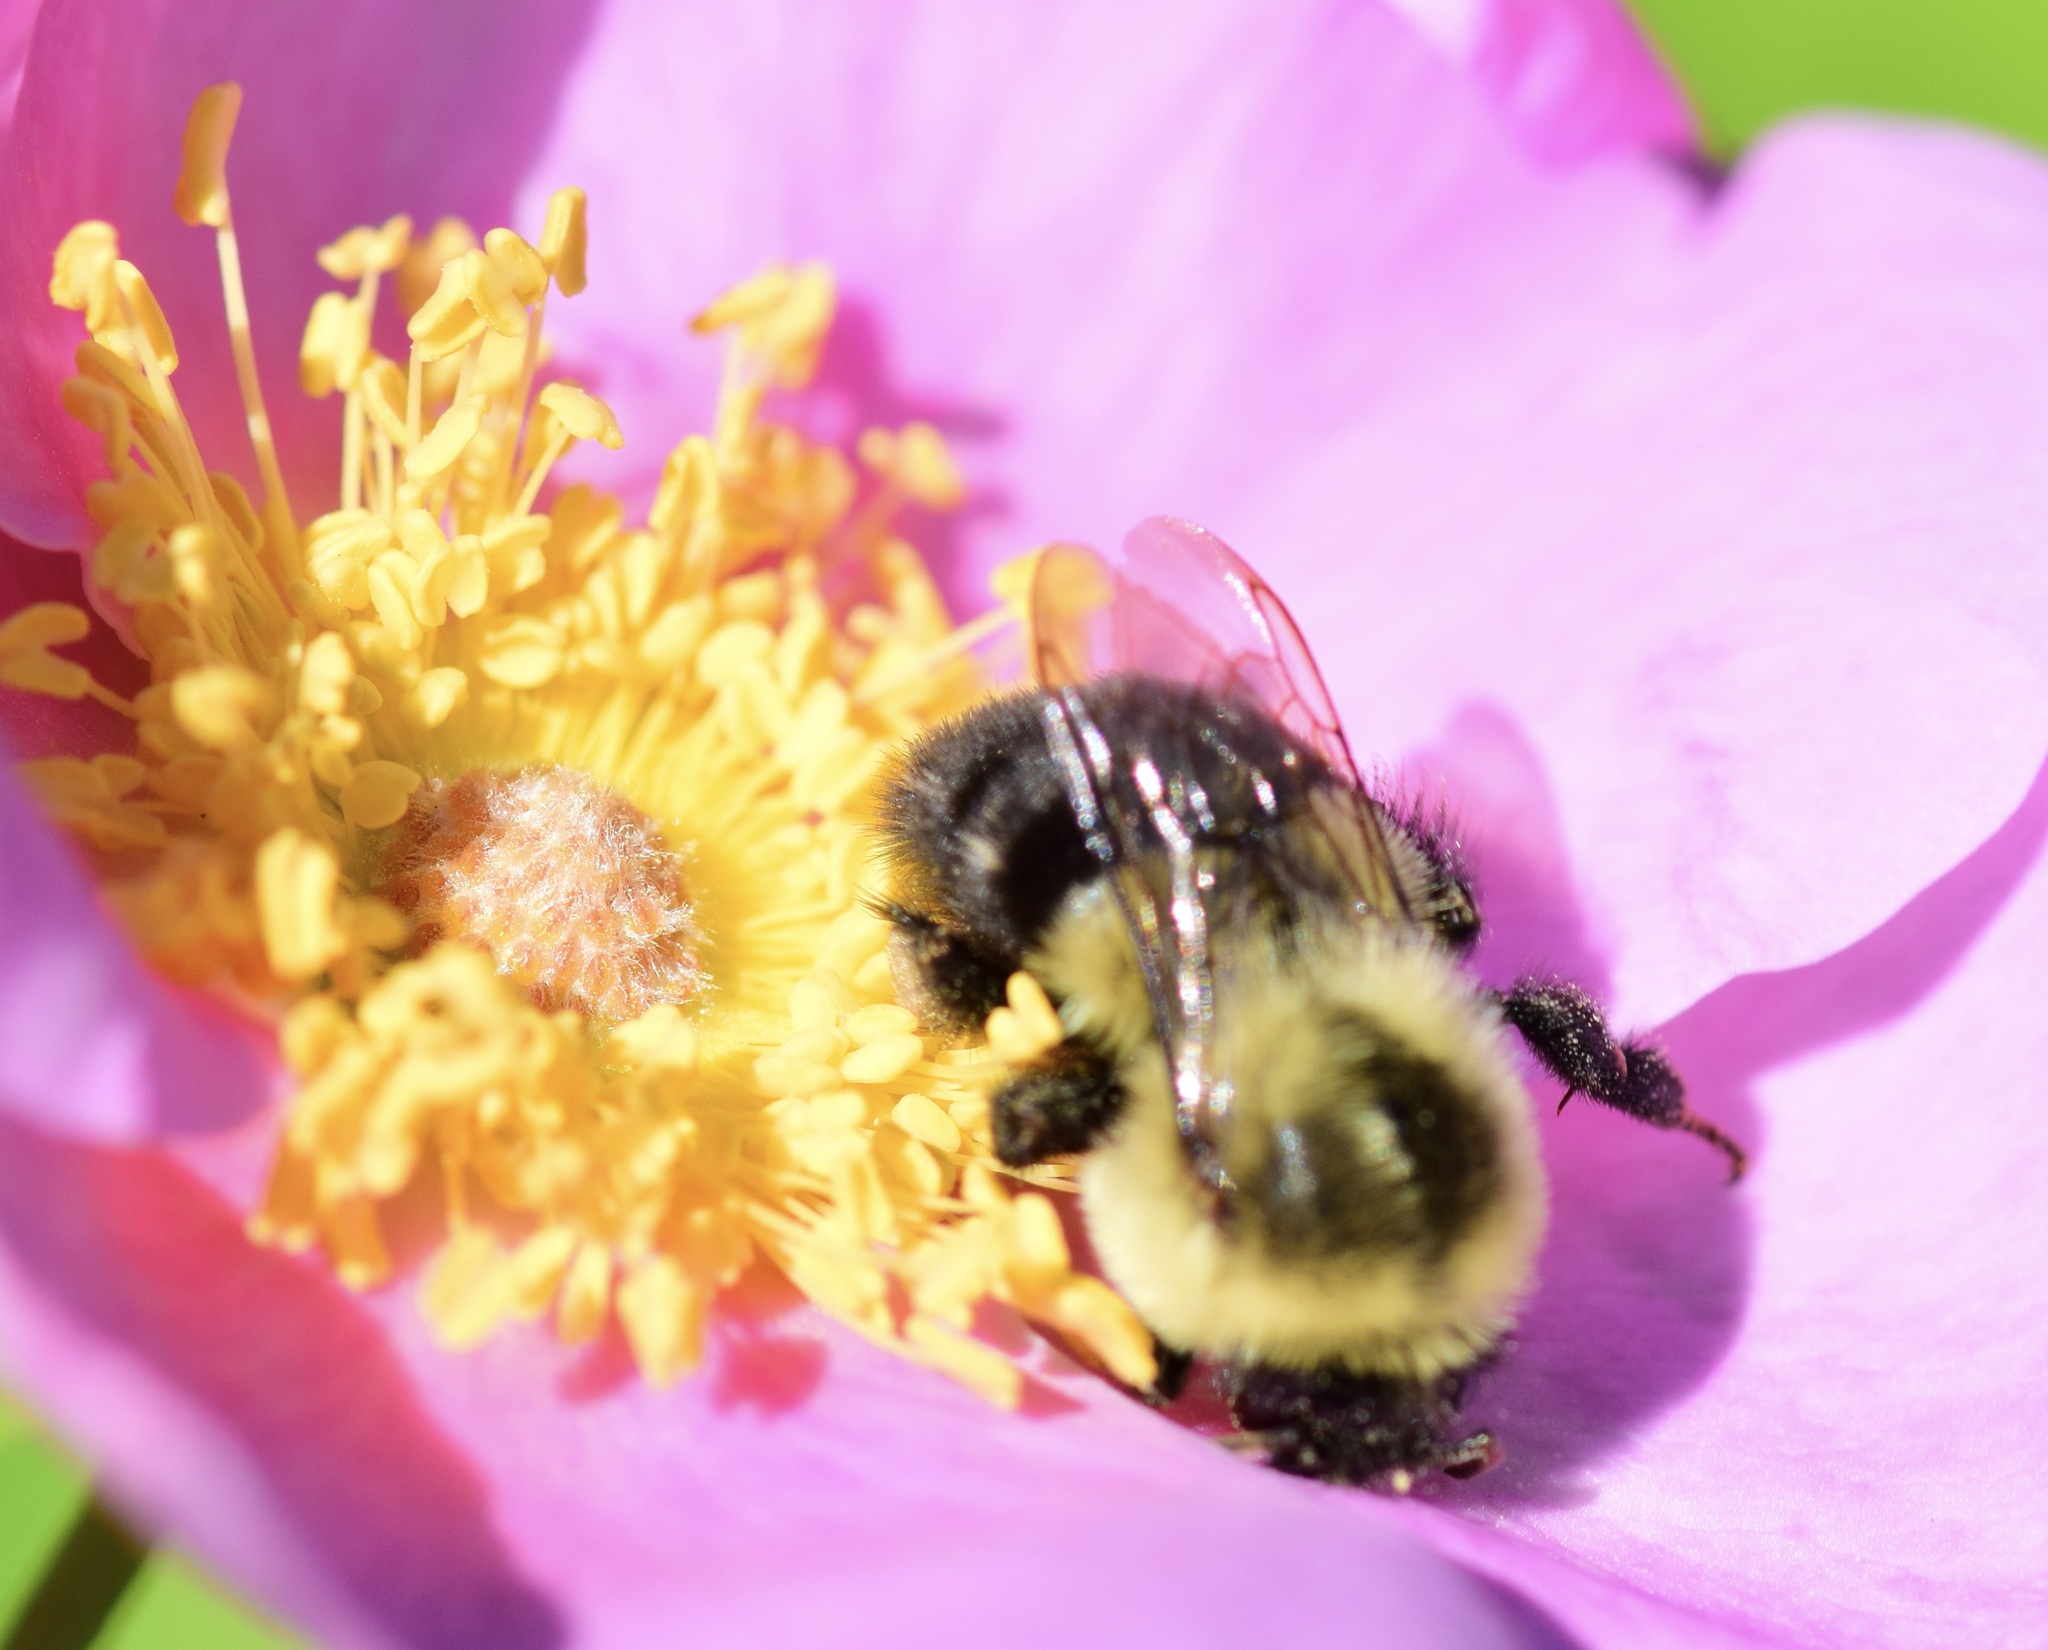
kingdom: Animalia
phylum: Arthropoda
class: Insecta
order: Hymenoptera
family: Apidae
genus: Bombus
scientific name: Bombus impatiens
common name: Common eastern bumble bee
